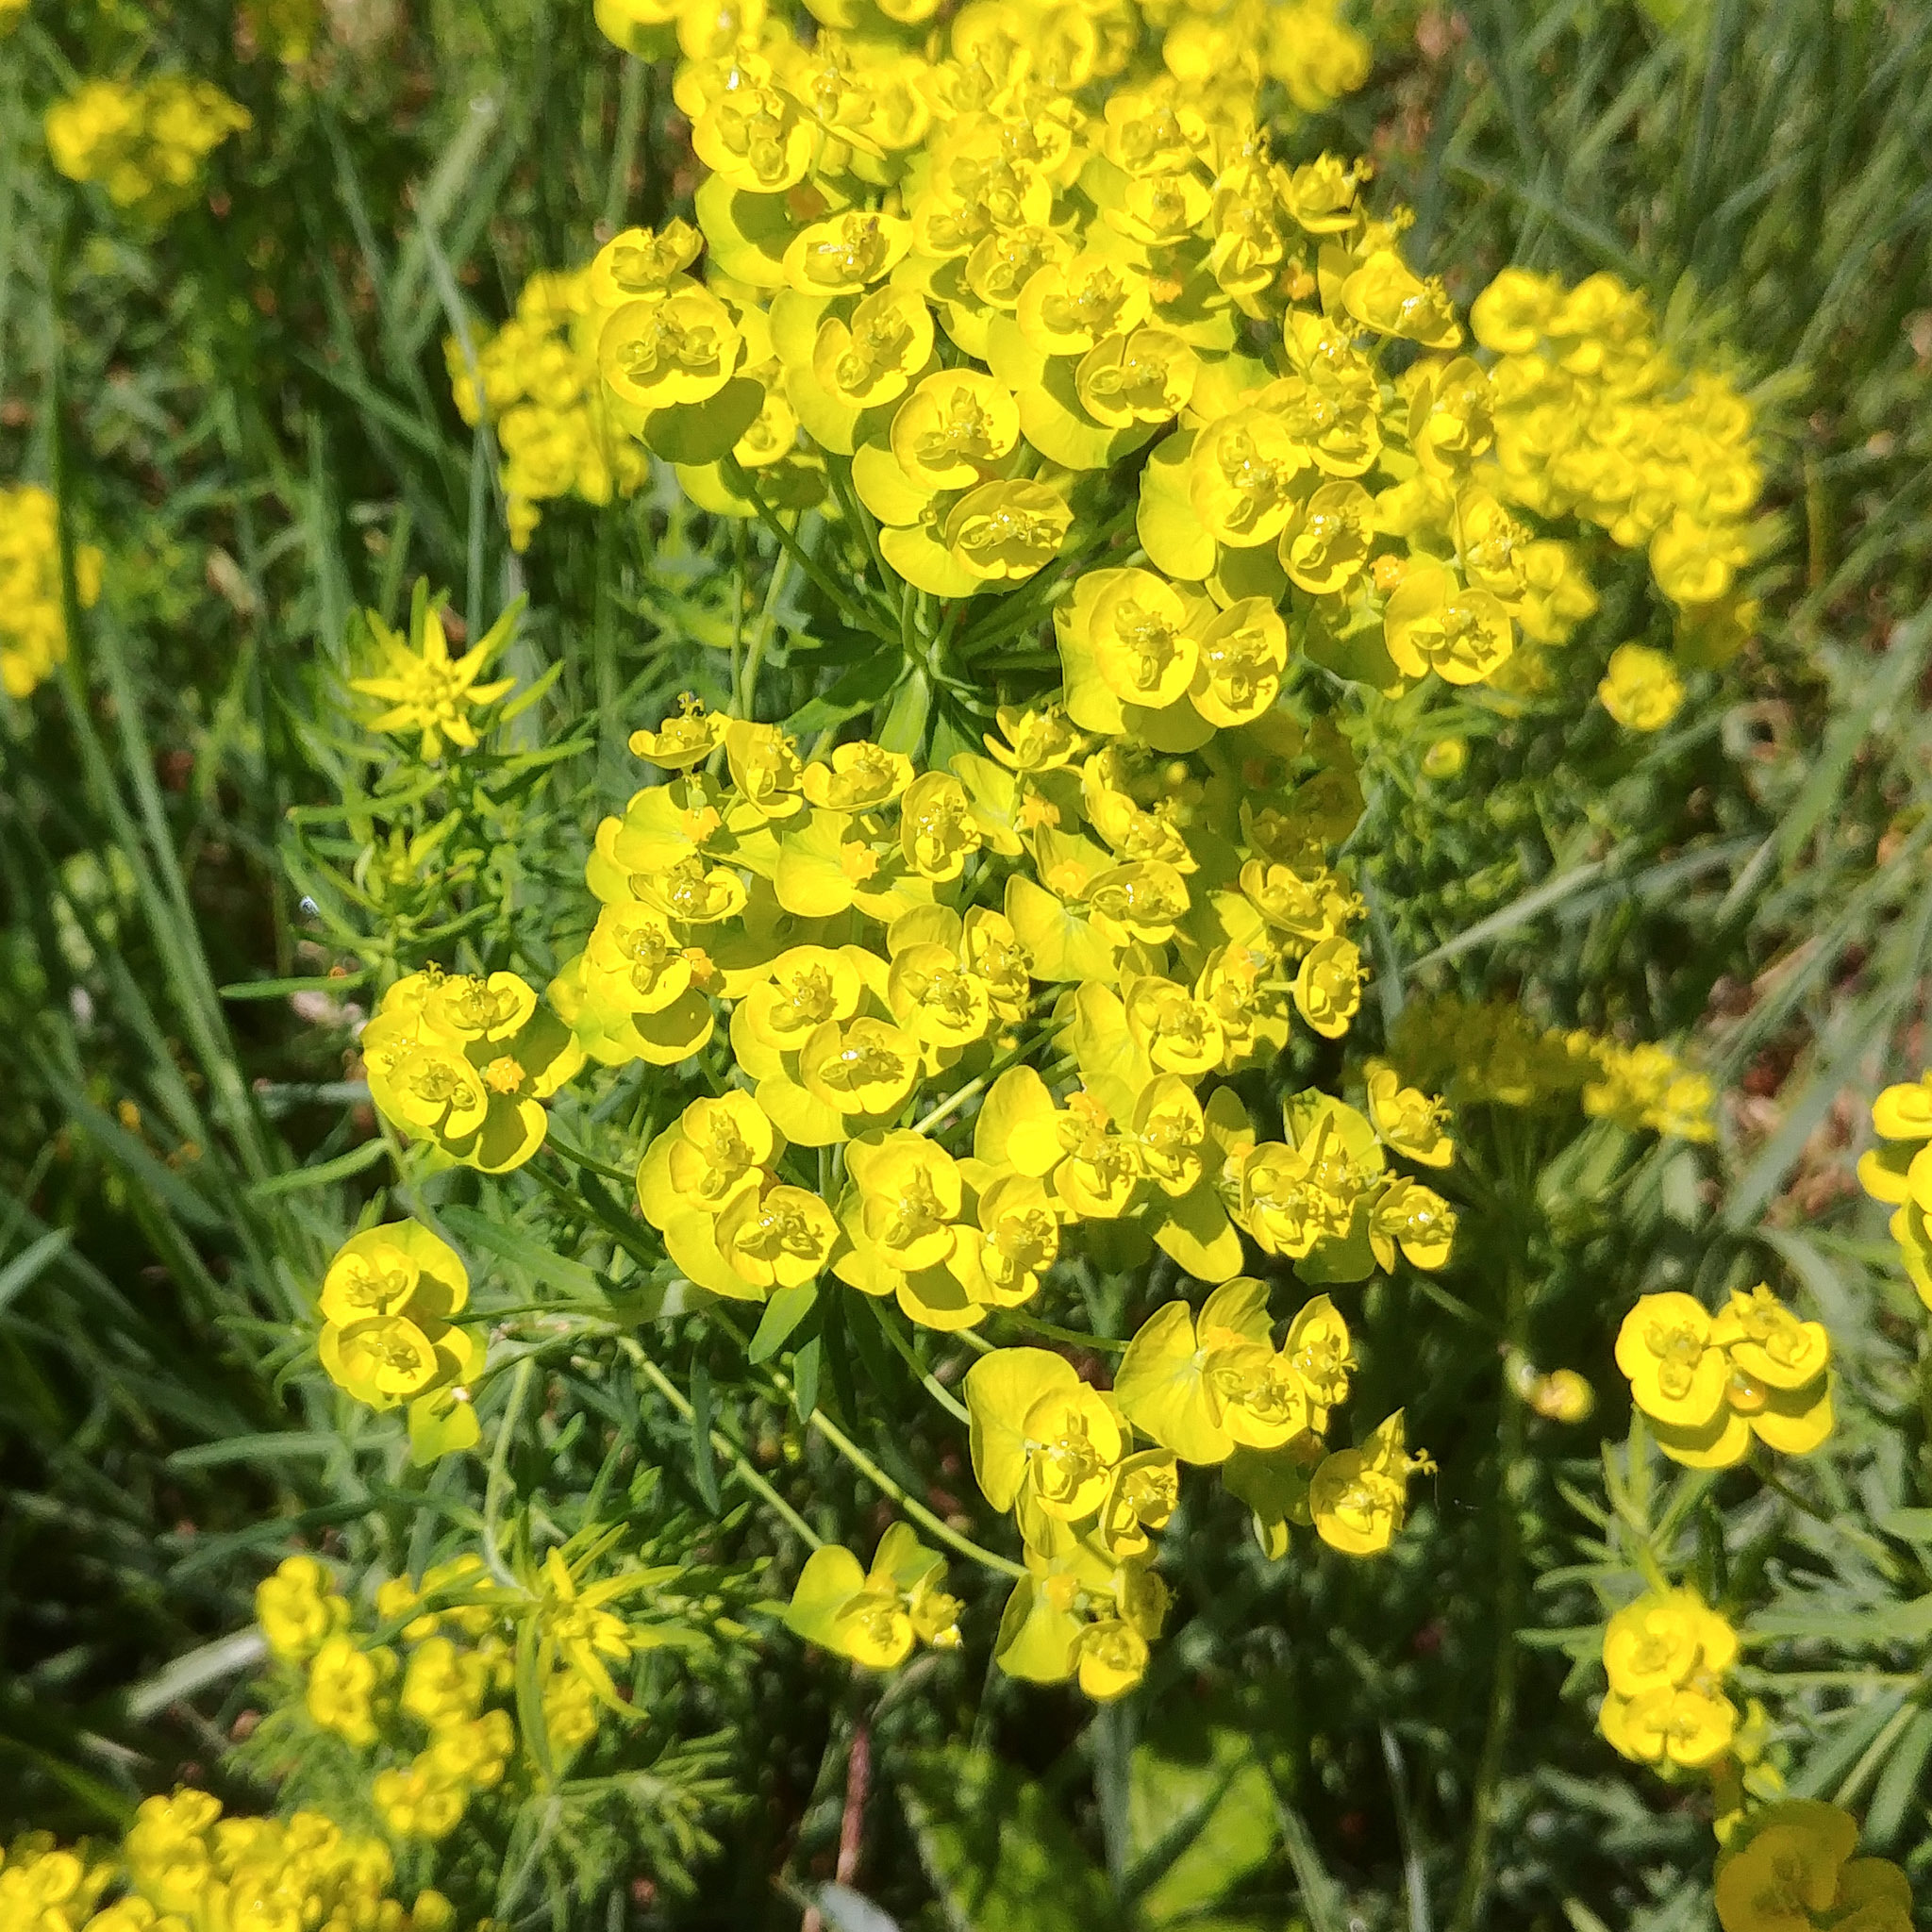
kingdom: Plantae
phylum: Tracheophyta
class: Magnoliopsida
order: Malpighiales
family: Euphorbiaceae
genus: Euphorbia
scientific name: Euphorbia cyparissias
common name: Cypress spurge
